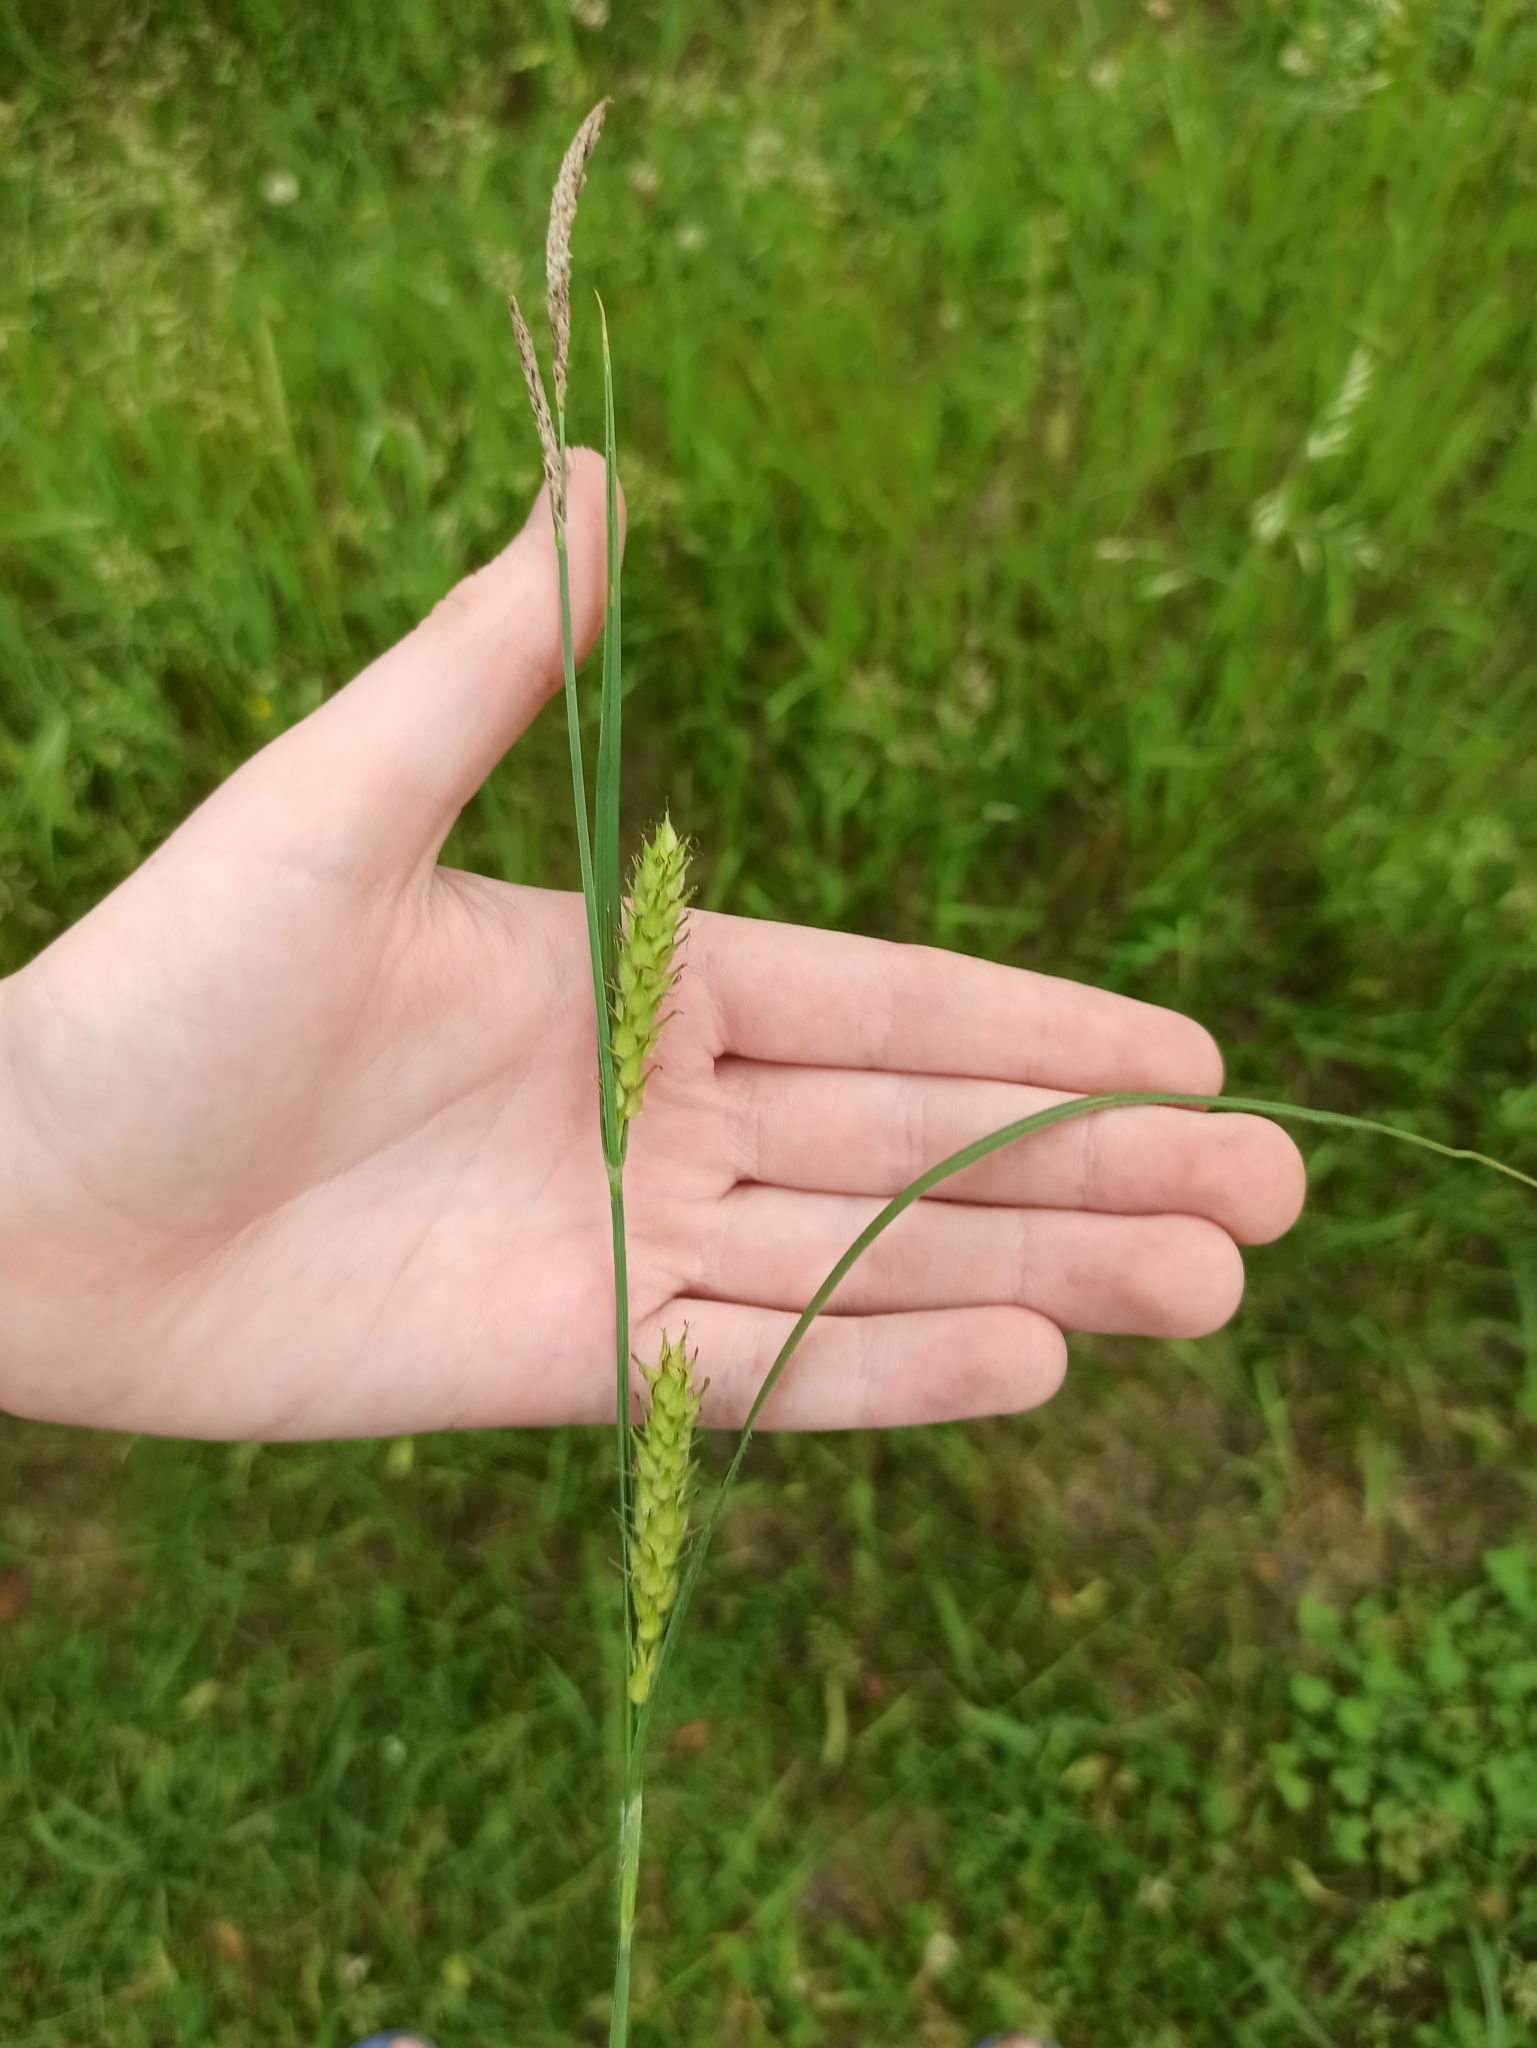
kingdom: Plantae
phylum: Tracheophyta
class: Liliopsida
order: Poales
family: Cyperaceae
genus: Carex
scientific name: Carex hirta
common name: Hairy sedge
